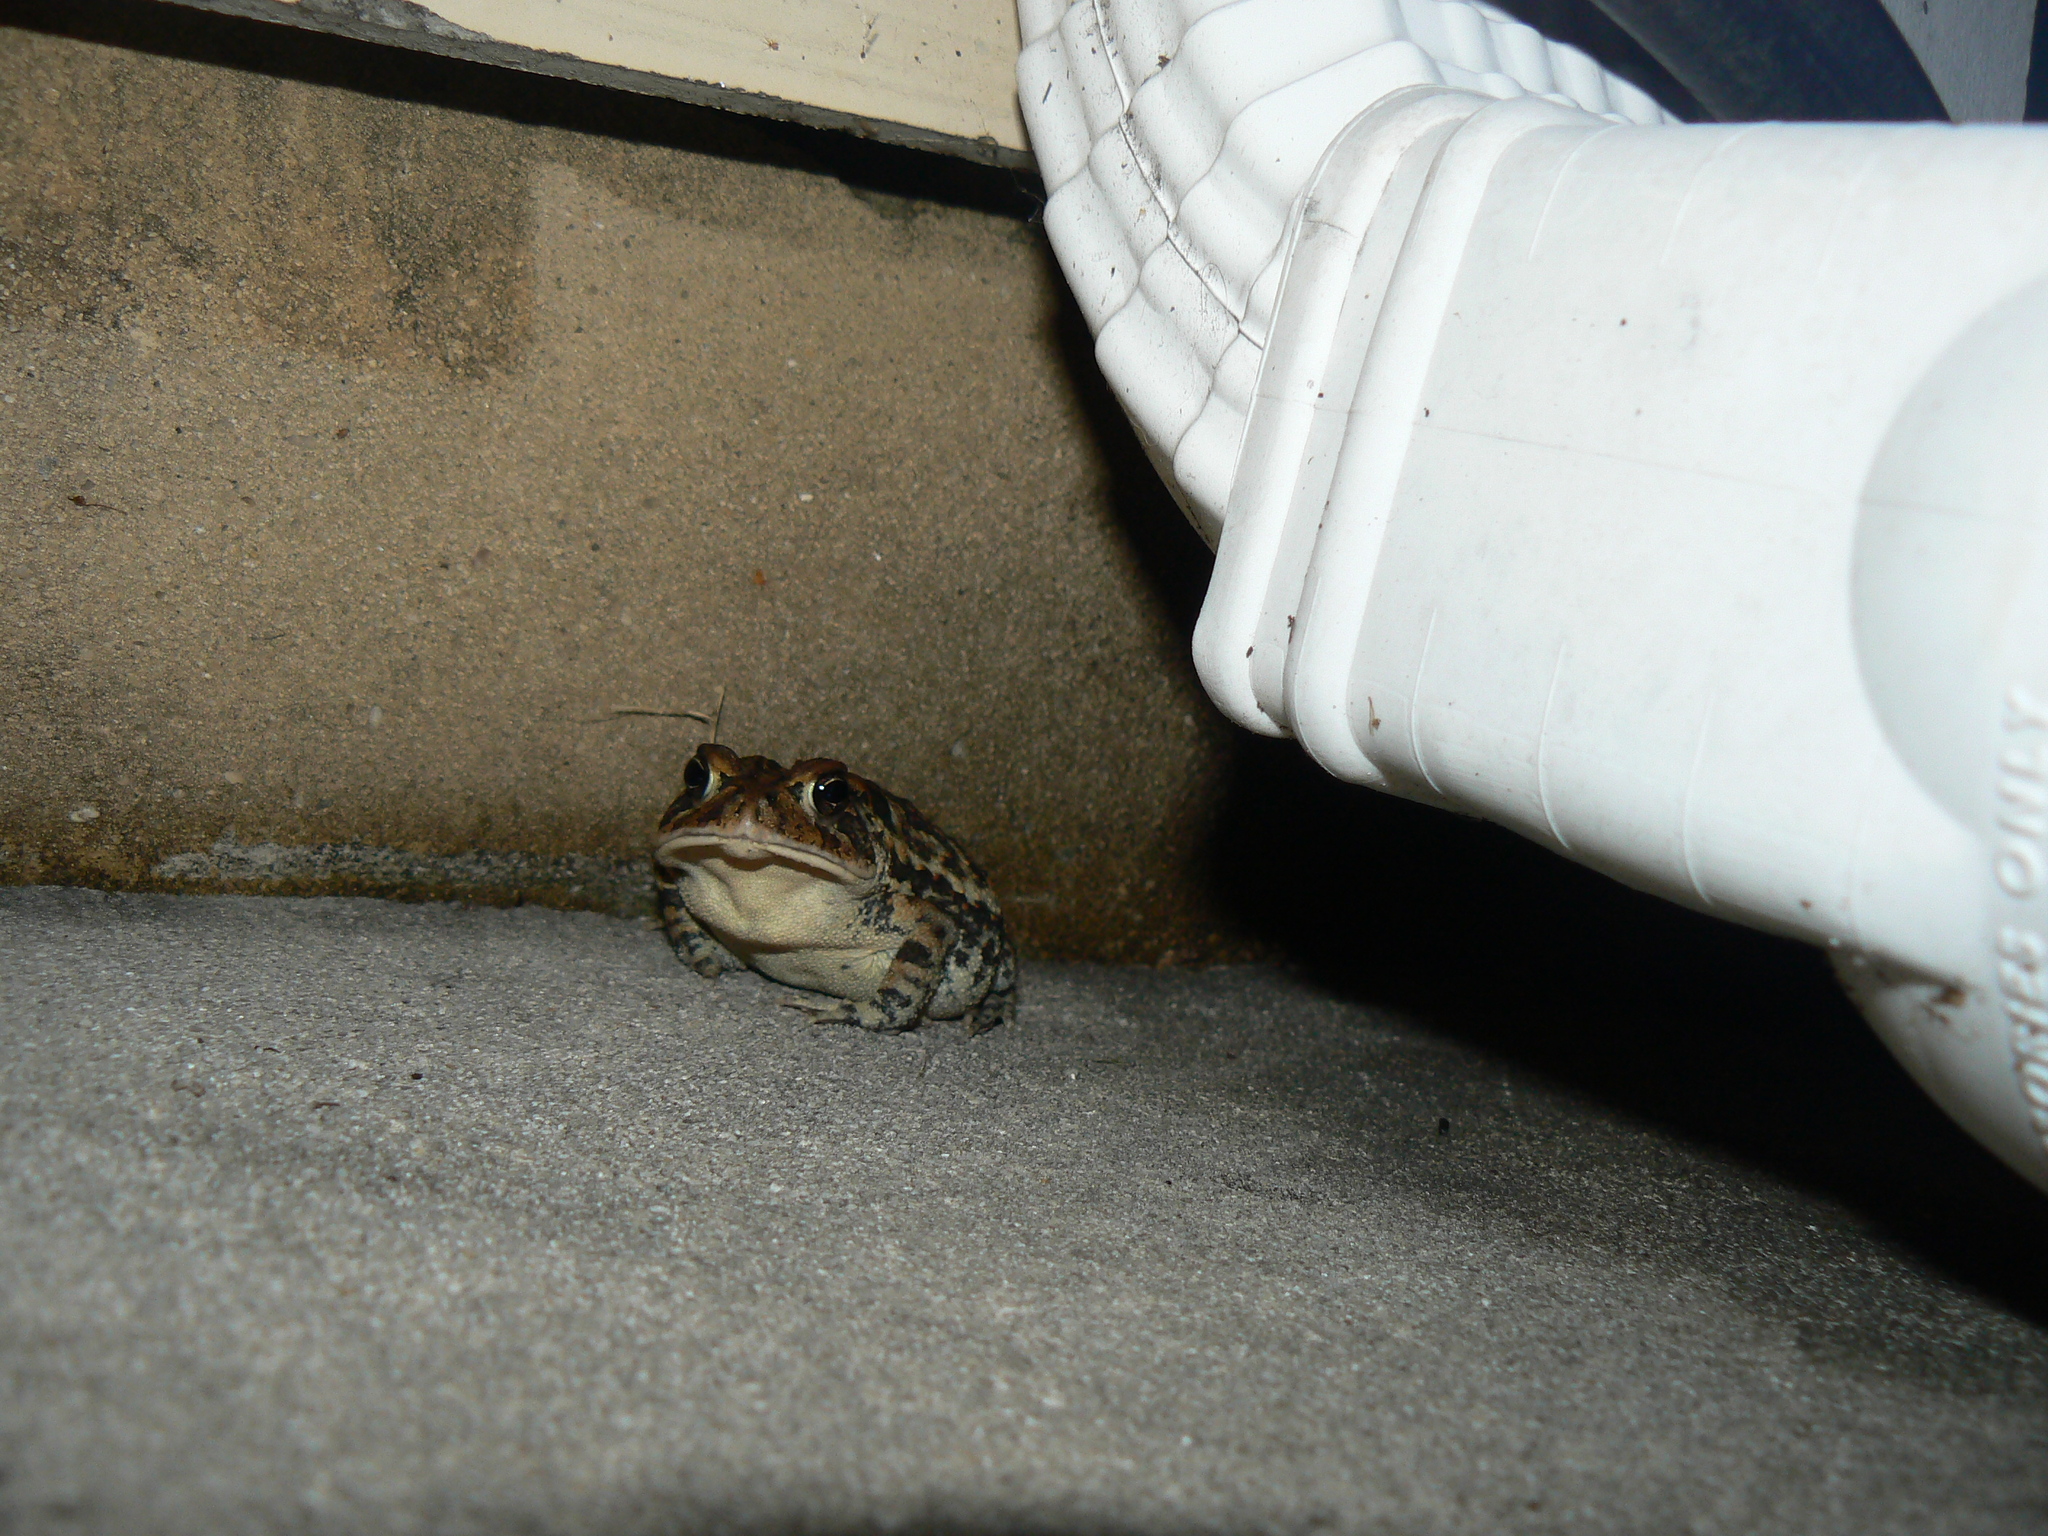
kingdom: Animalia
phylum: Chordata
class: Amphibia
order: Anura
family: Bufonidae
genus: Anaxyrus
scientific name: Anaxyrus terrestris
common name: Southern toad
